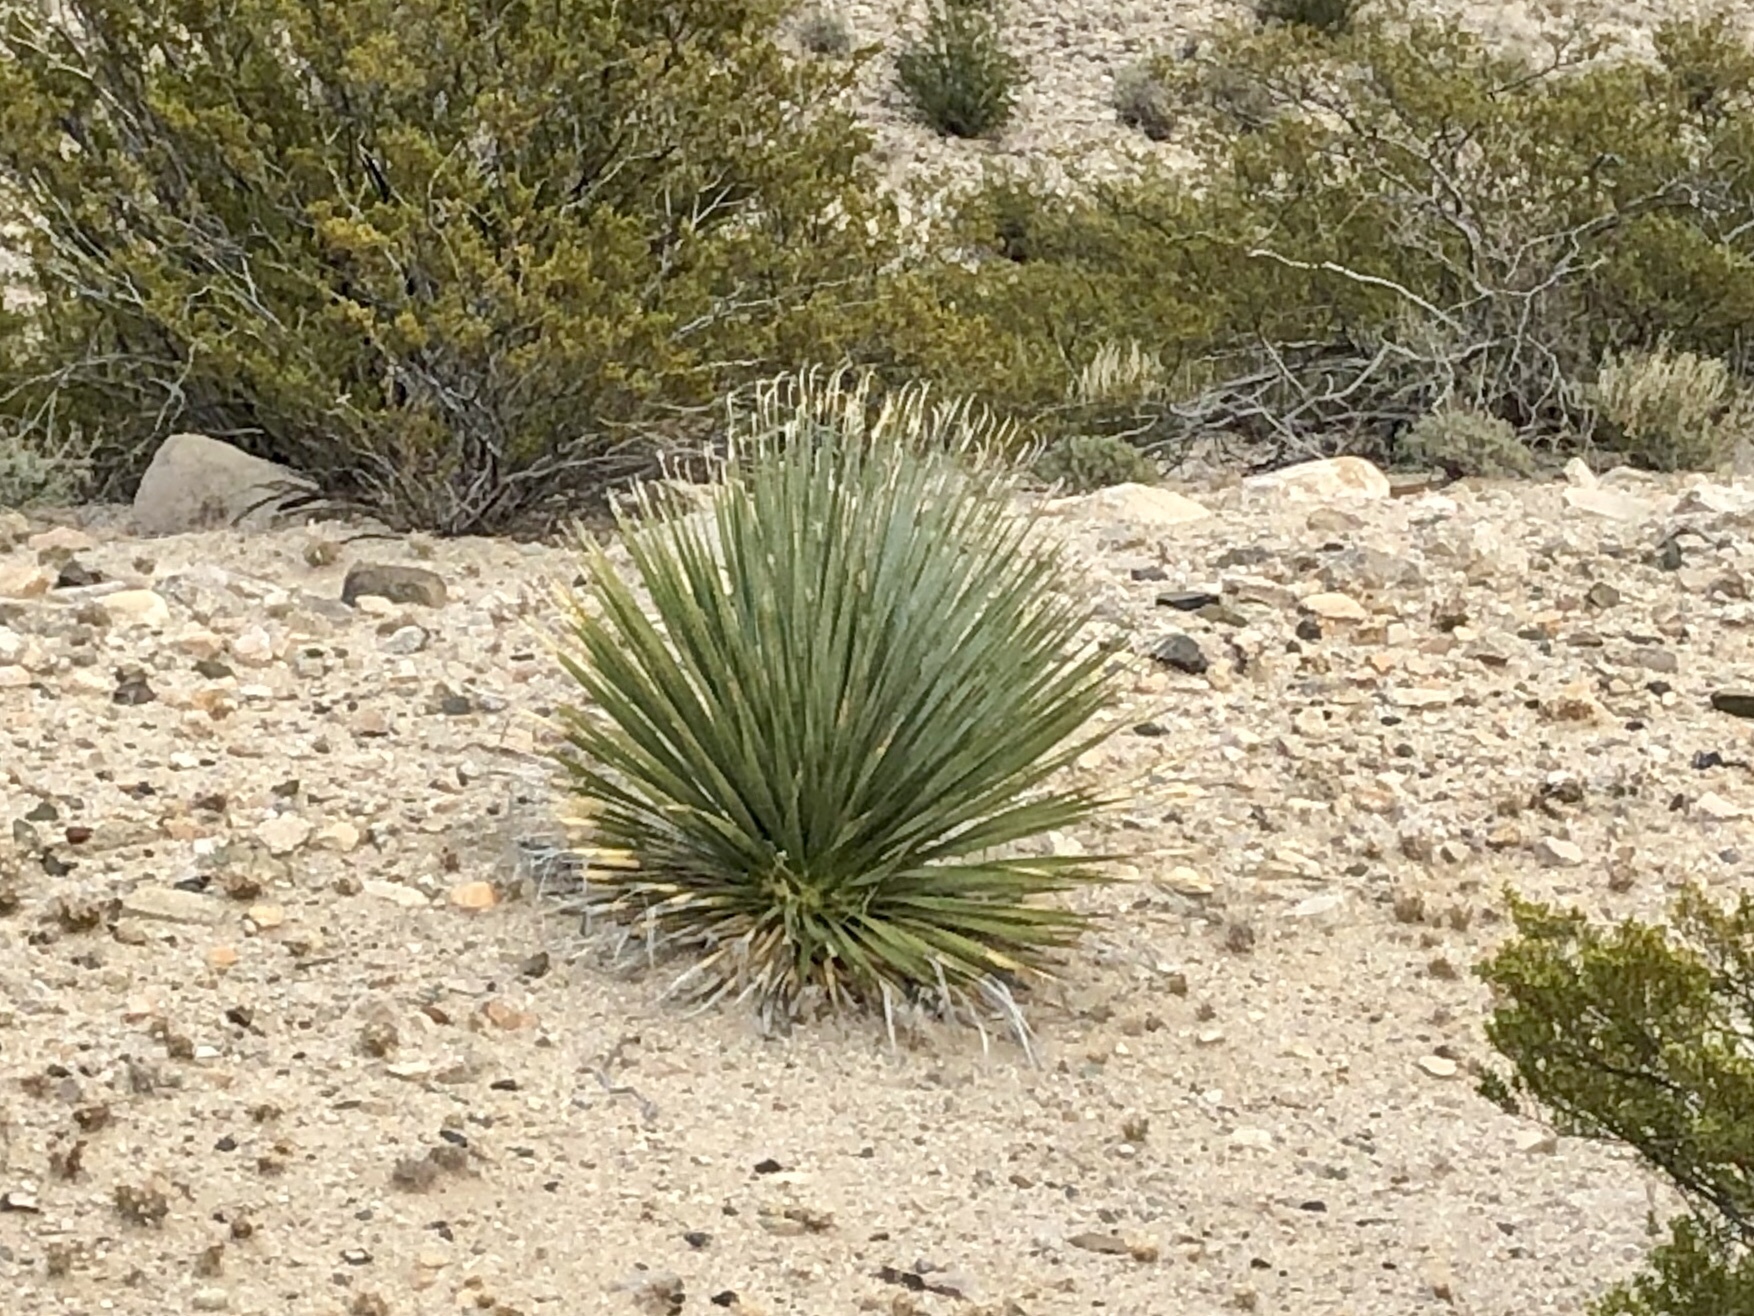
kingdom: Plantae
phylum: Tracheophyta
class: Liliopsida
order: Asparagales
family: Asparagaceae
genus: Dasylirion
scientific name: Dasylirion wheeleri
